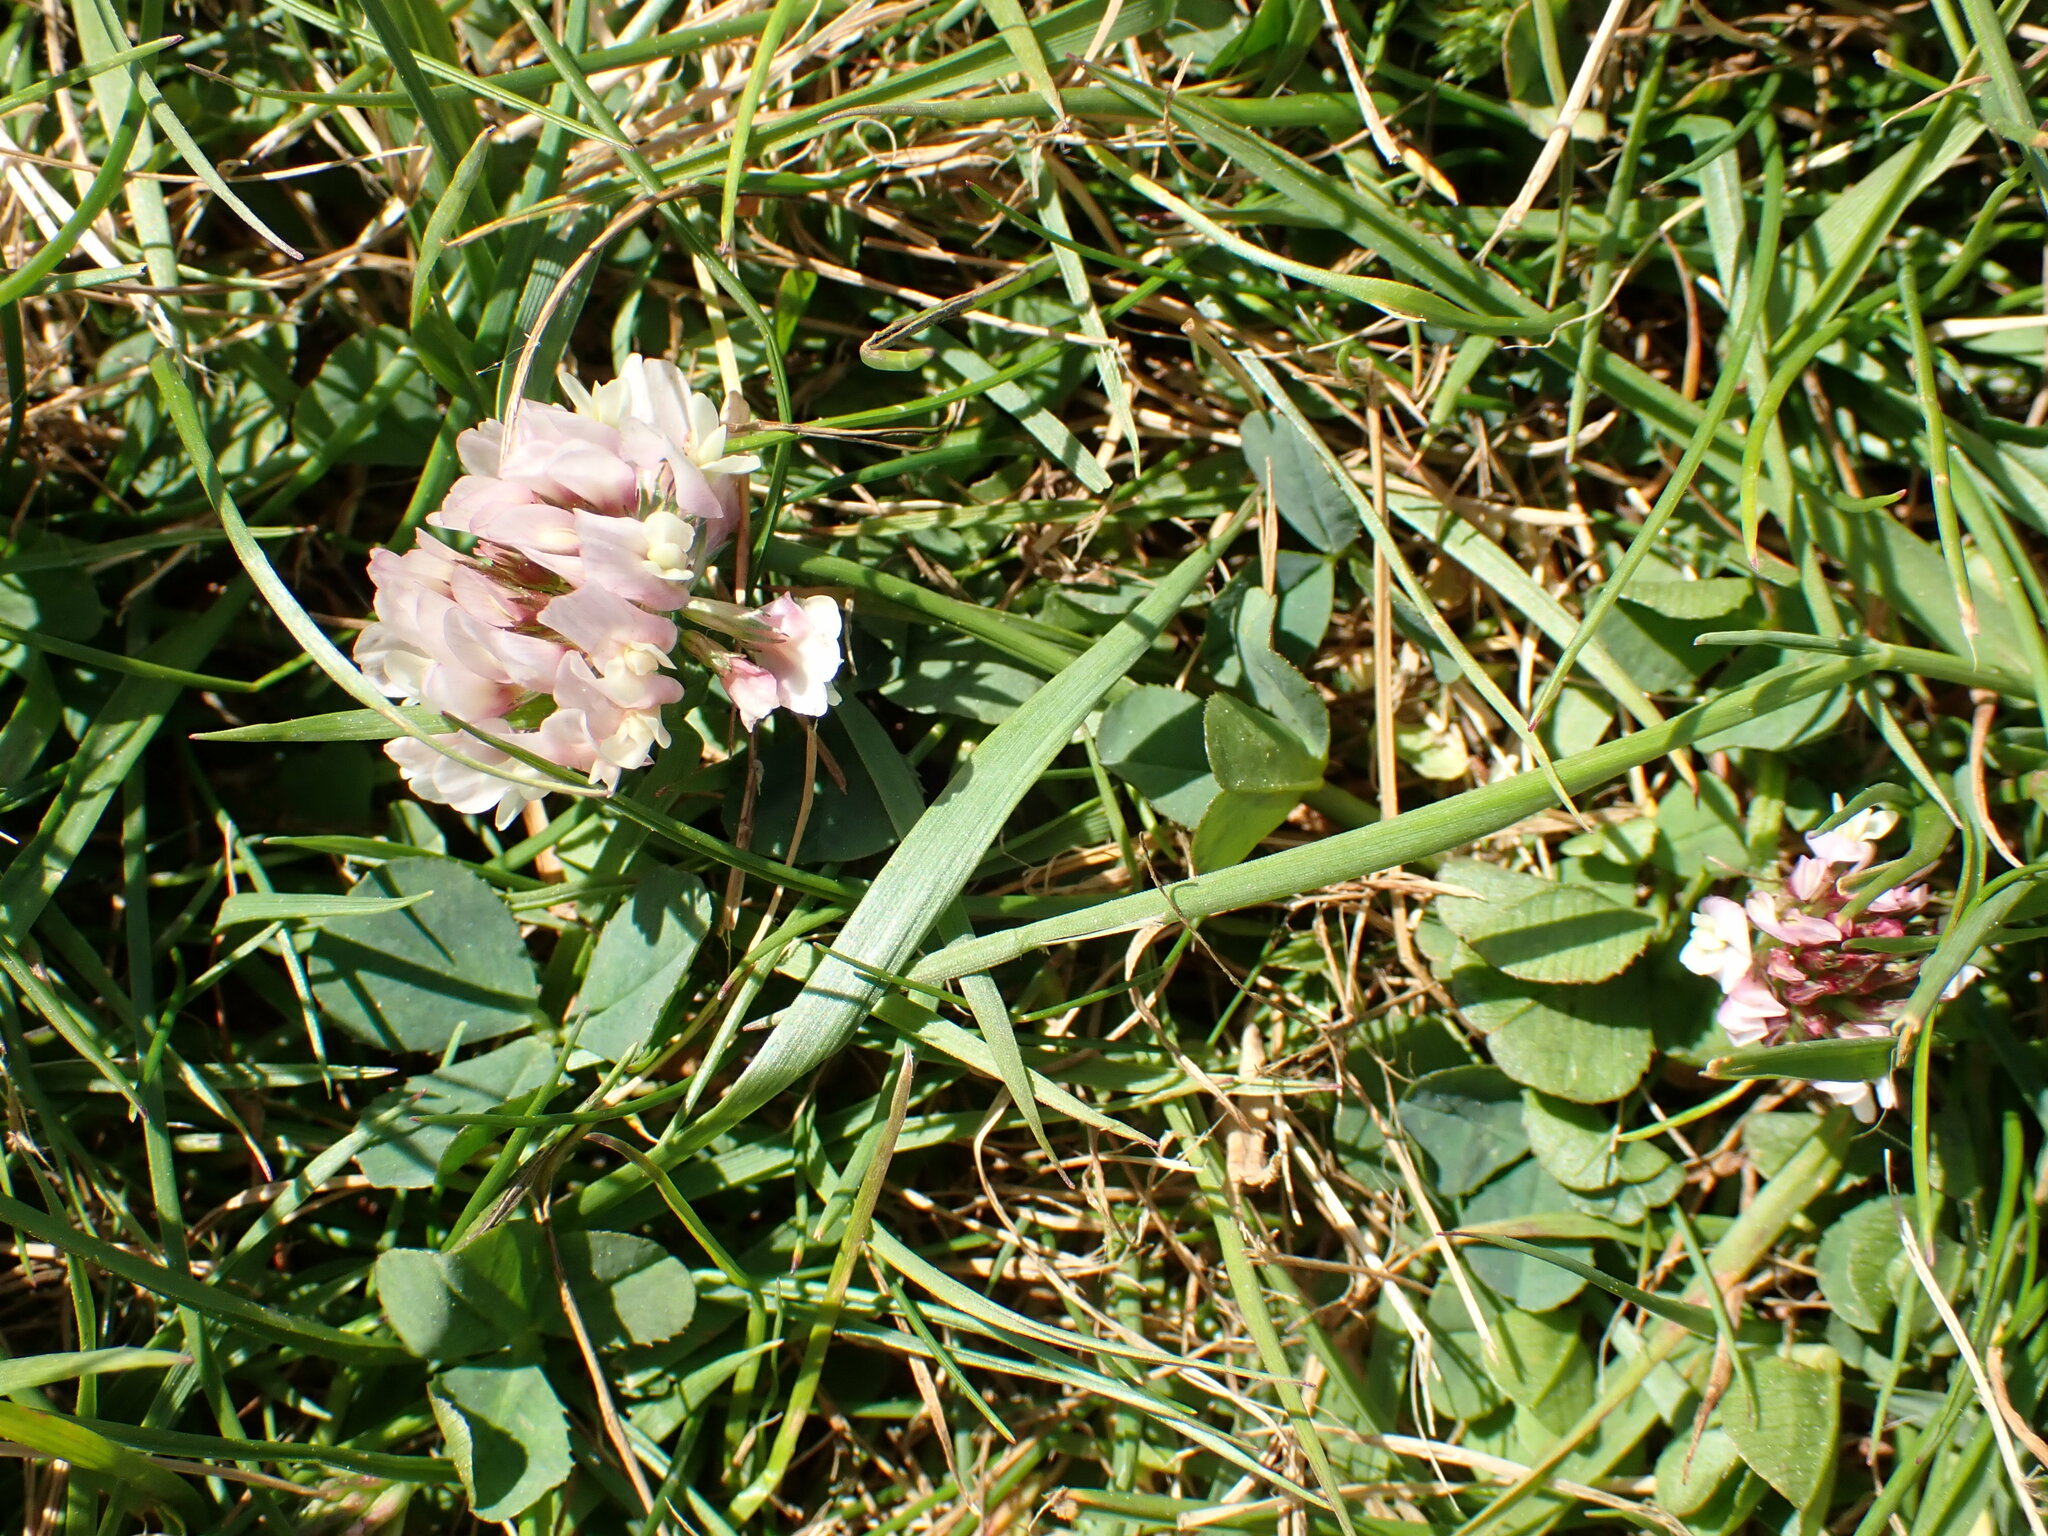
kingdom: Plantae
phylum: Tracheophyta
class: Magnoliopsida
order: Fabales
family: Fabaceae
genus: Trifolium
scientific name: Trifolium repens
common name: White clover
